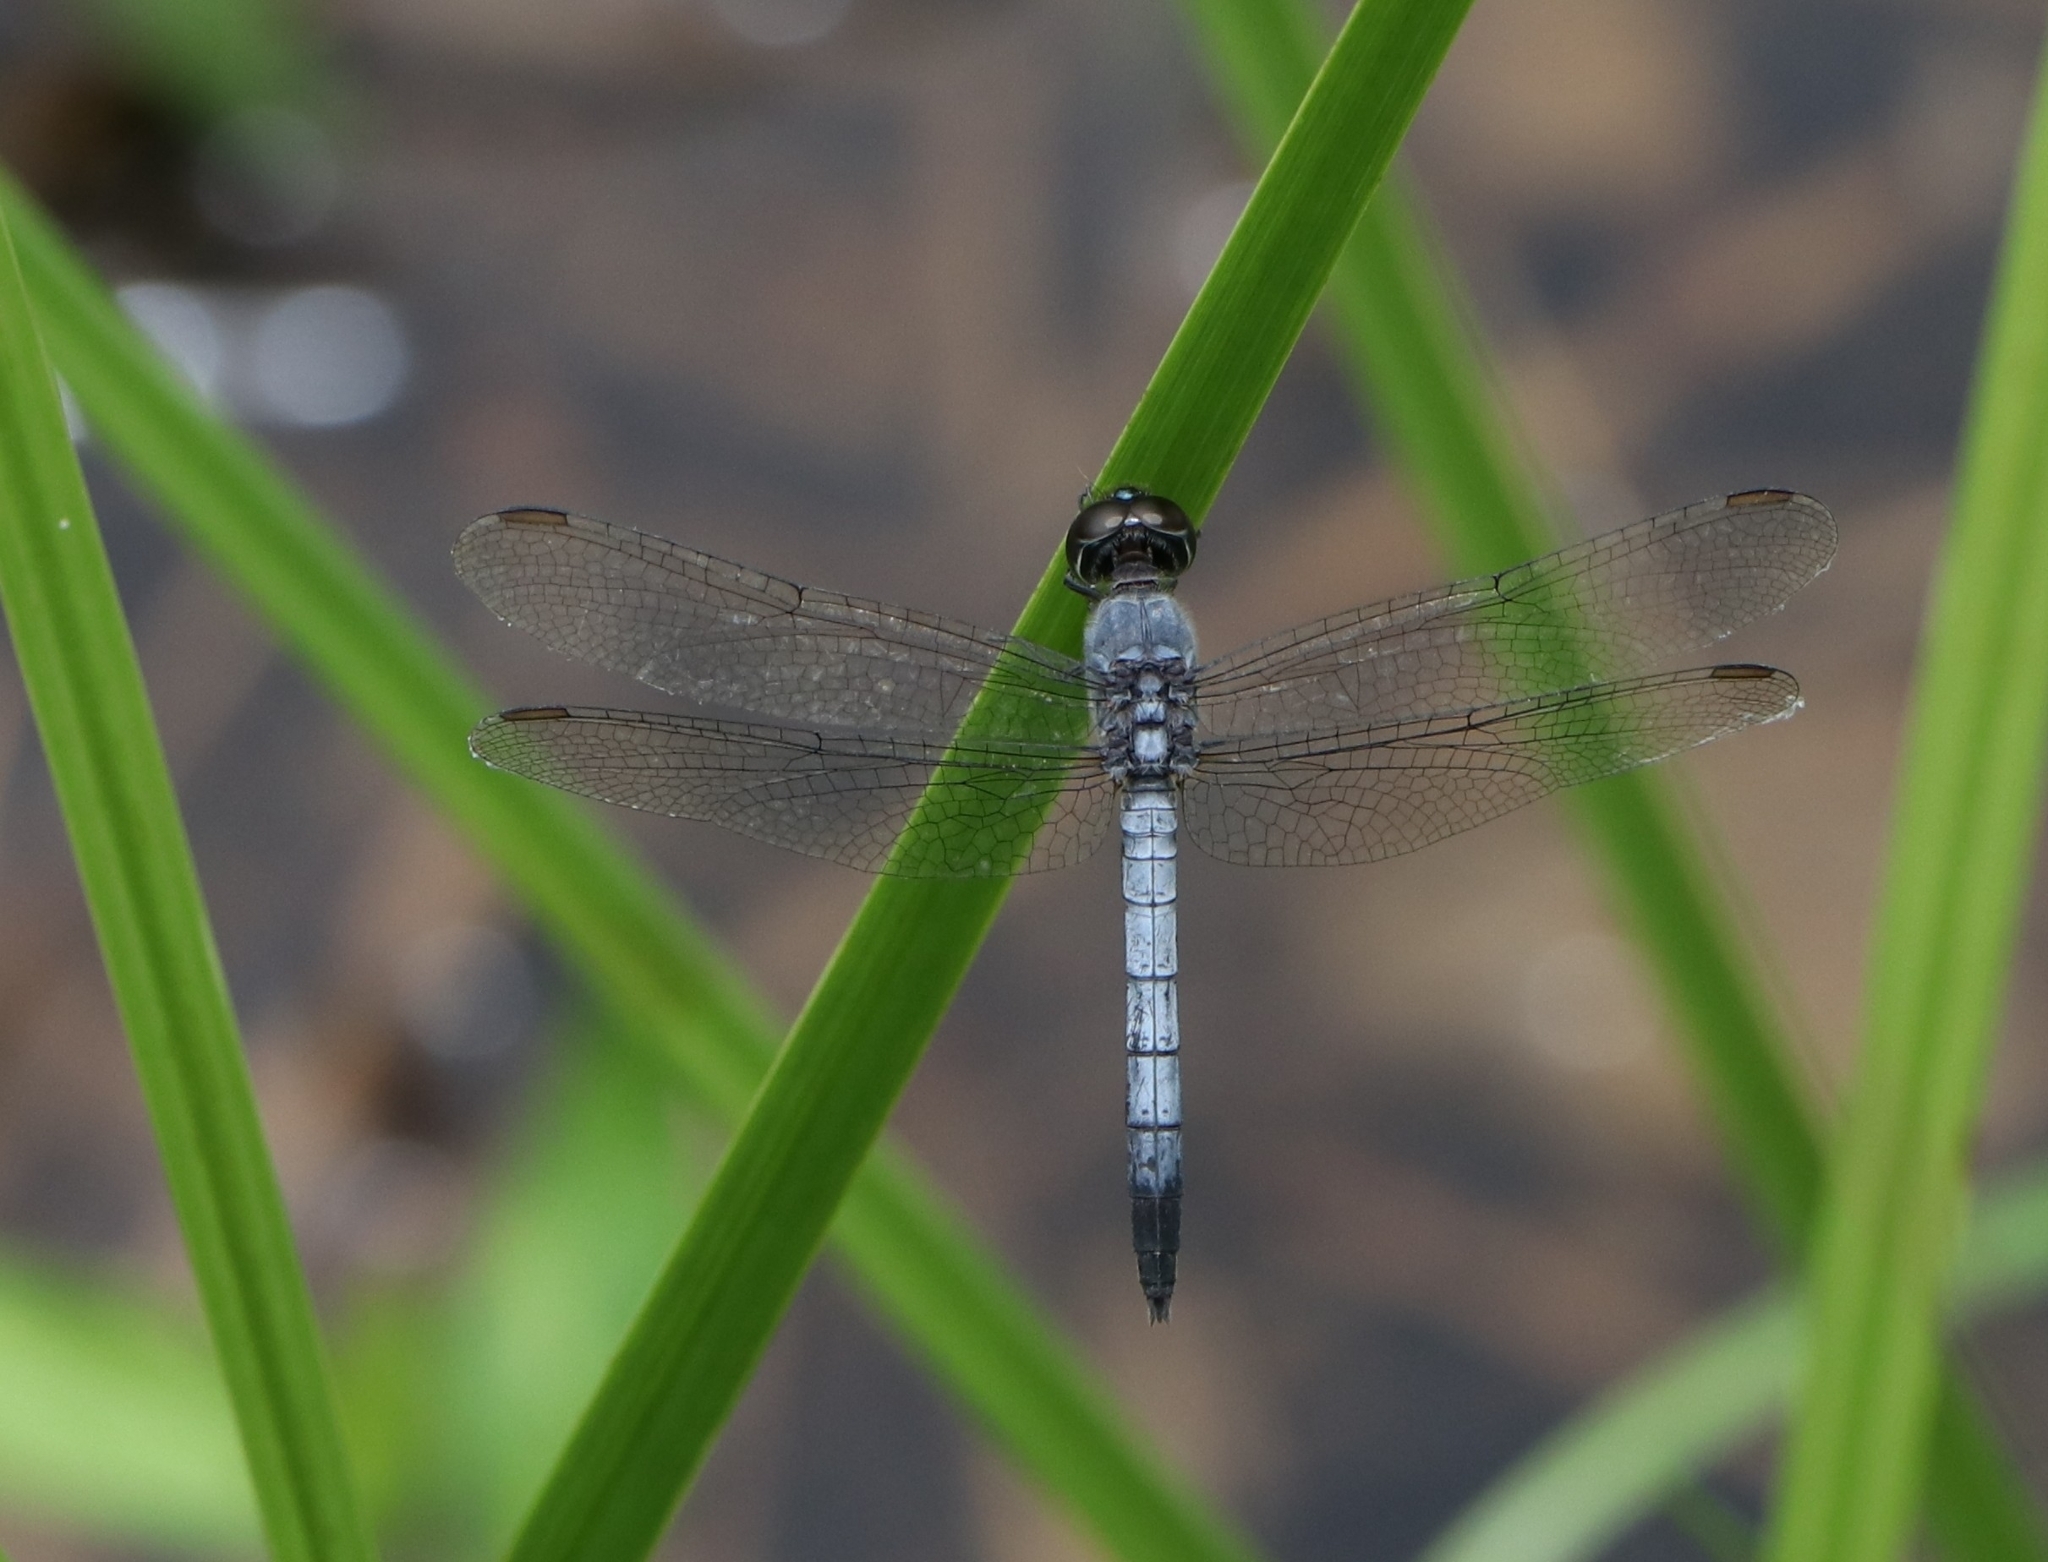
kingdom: Animalia
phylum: Arthropoda
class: Insecta
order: Odonata
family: Libellulidae
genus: Brachydiplax
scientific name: Brachydiplax sobrina
